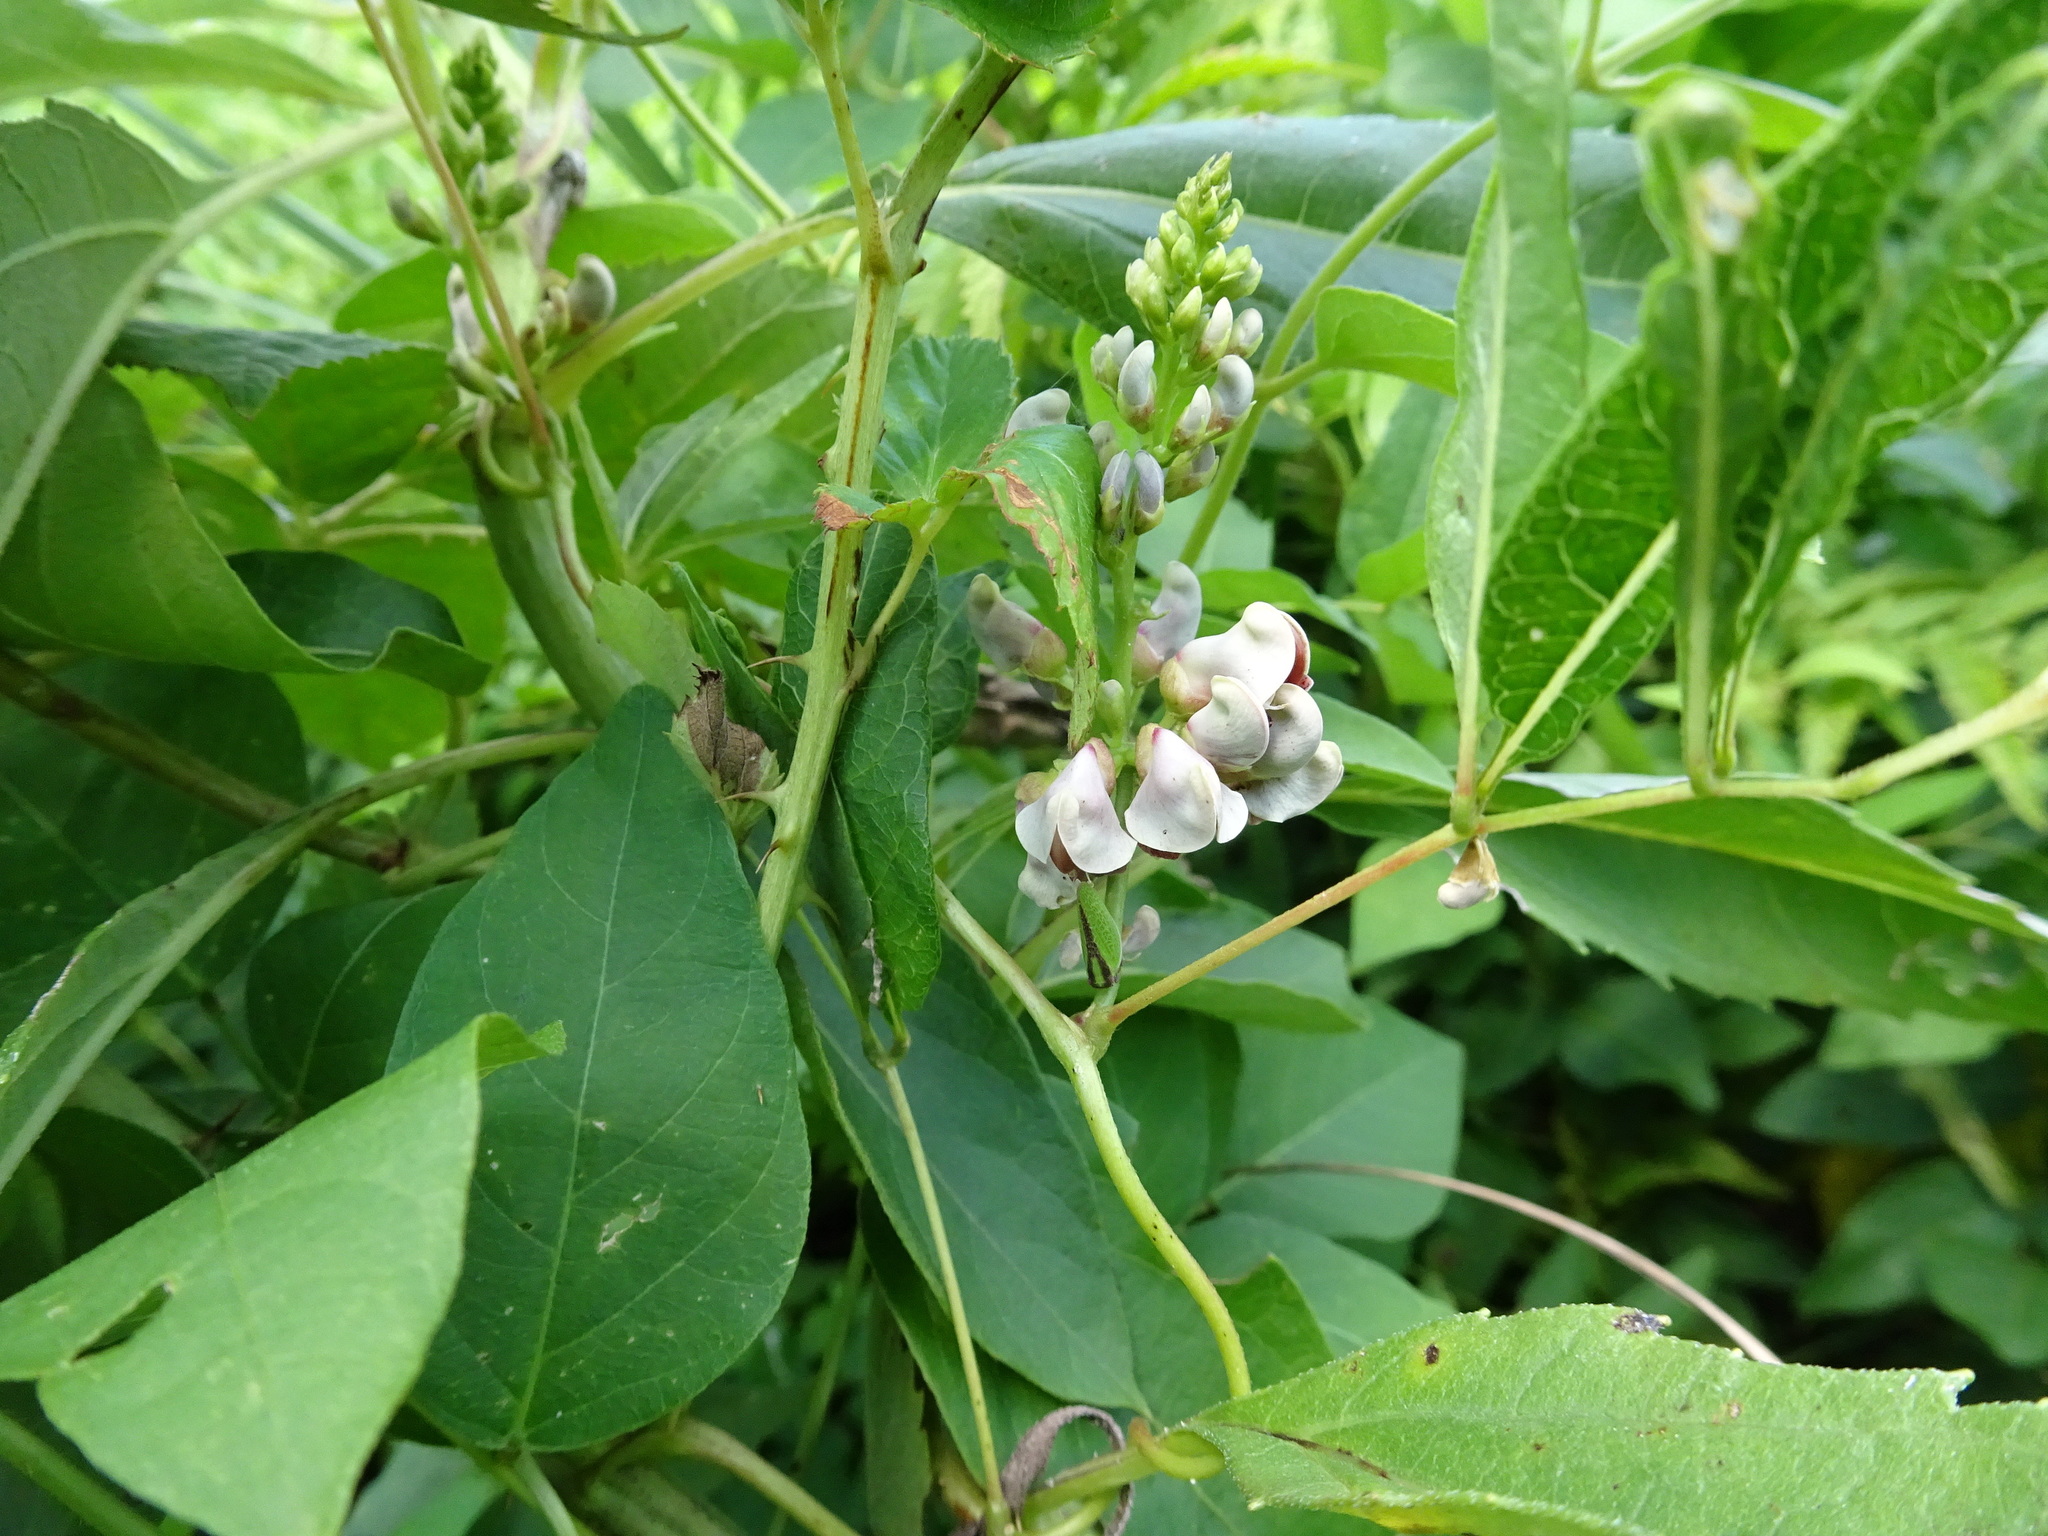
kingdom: Plantae
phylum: Tracheophyta
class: Magnoliopsida
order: Fabales
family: Fabaceae
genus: Apios
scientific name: Apios americana
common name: American potato-bean
